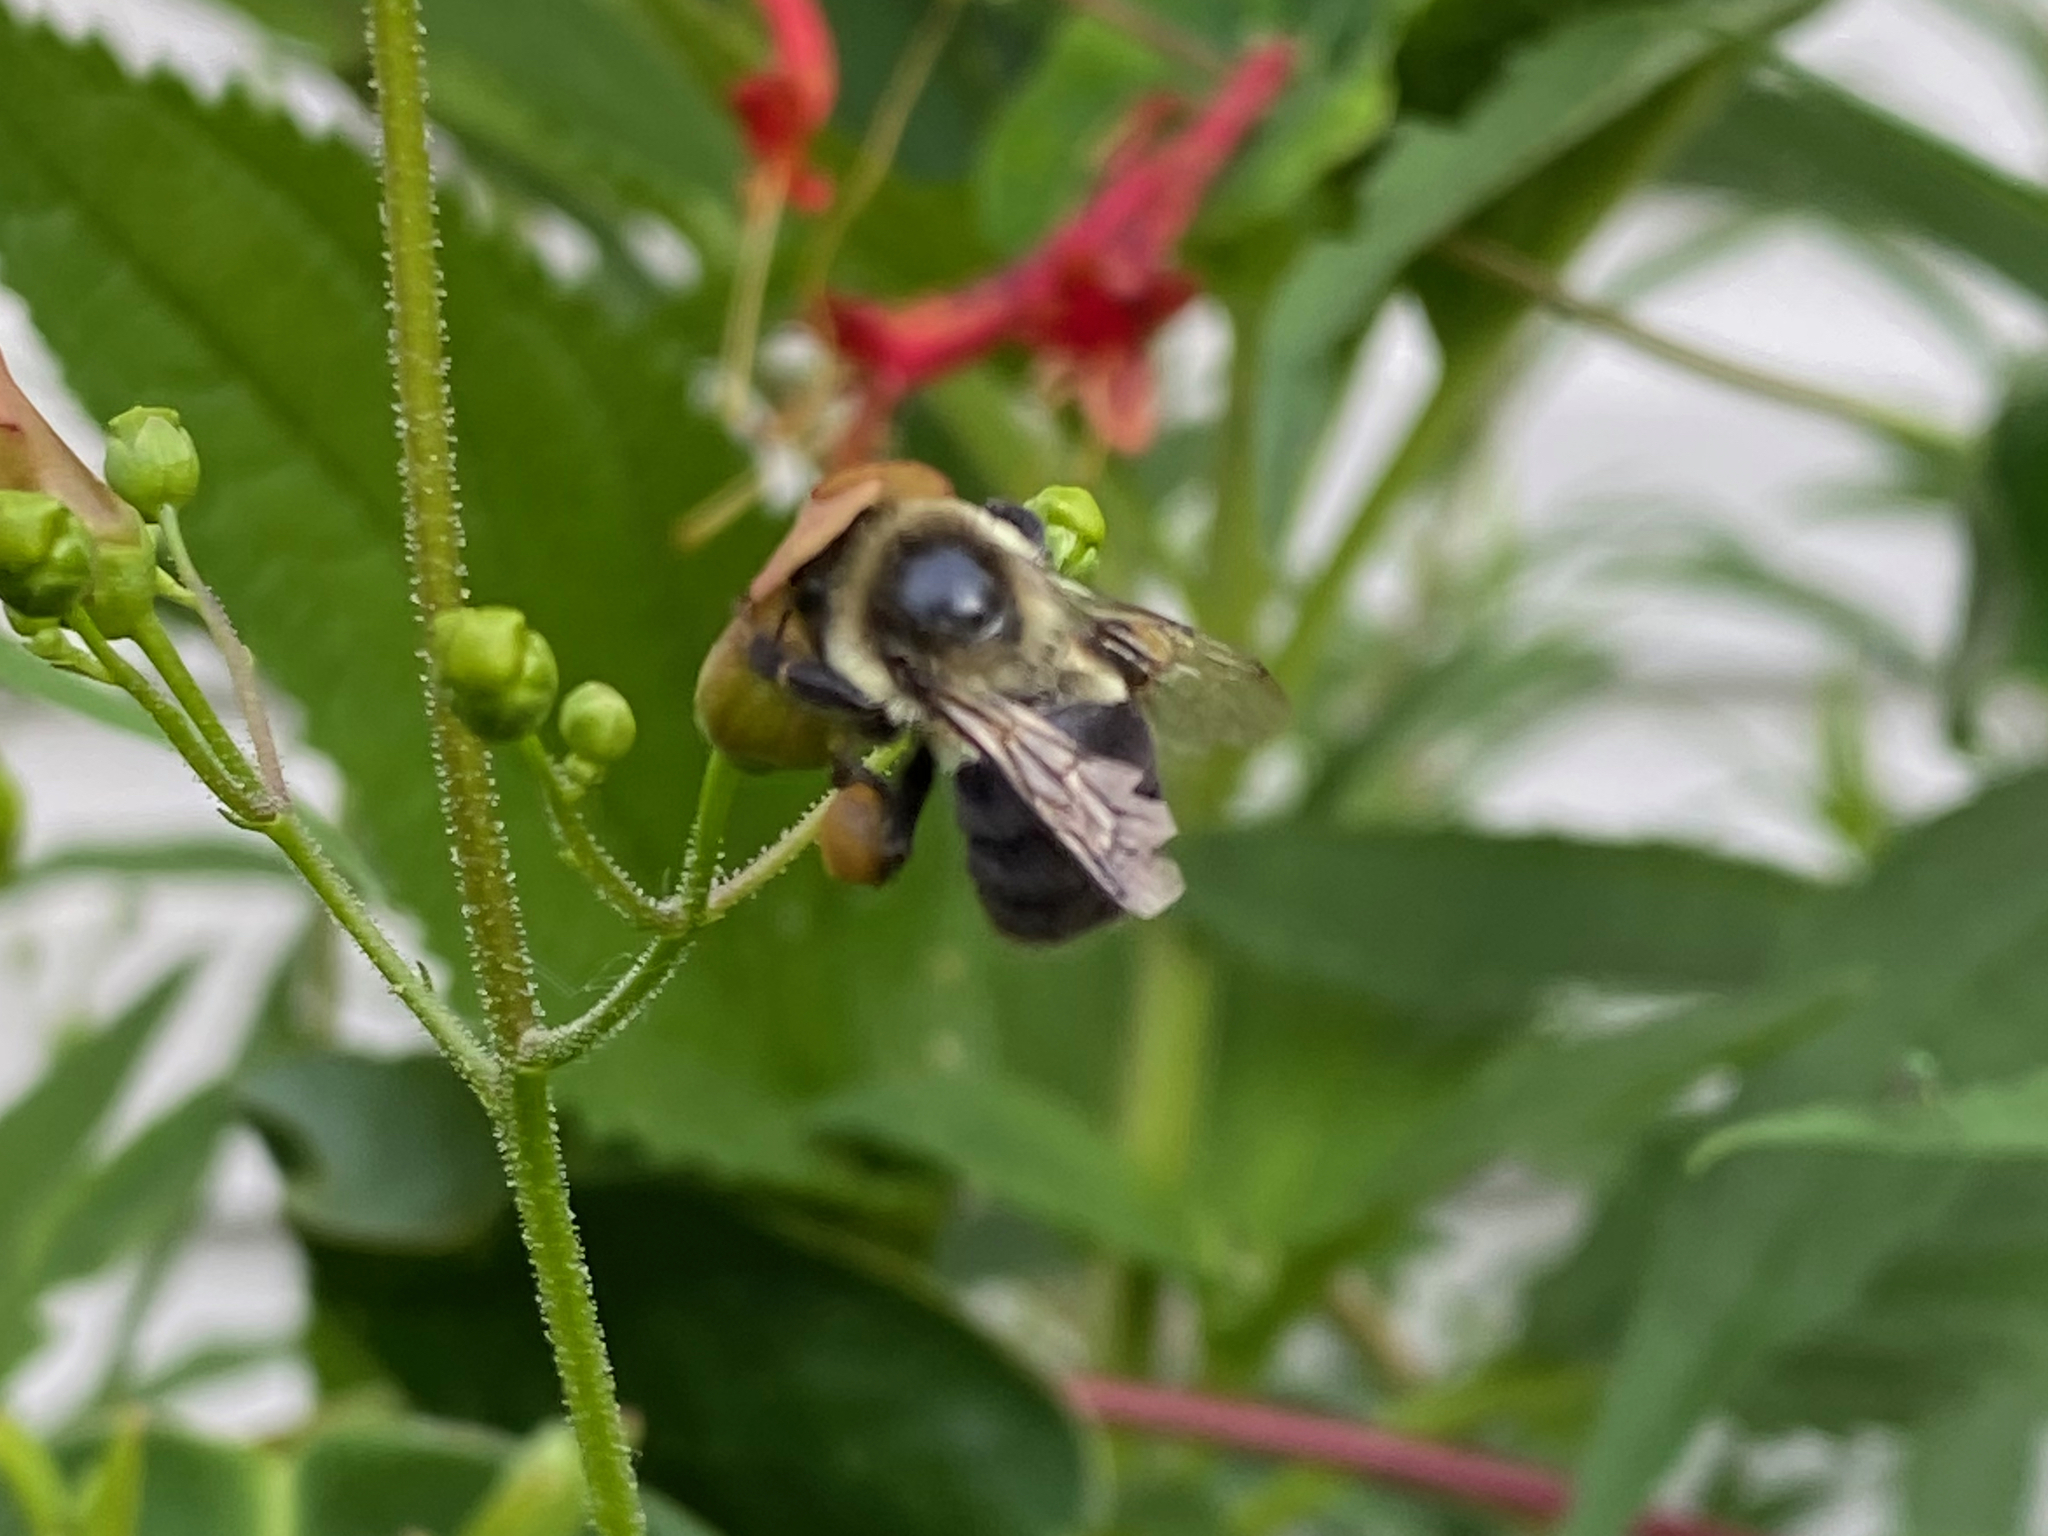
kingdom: Animalia
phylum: Arthropoda
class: Insecta
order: Hymenoptera
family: Apidae
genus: Bombus
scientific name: Bombus impatiens
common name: Common eastern bumble bee
